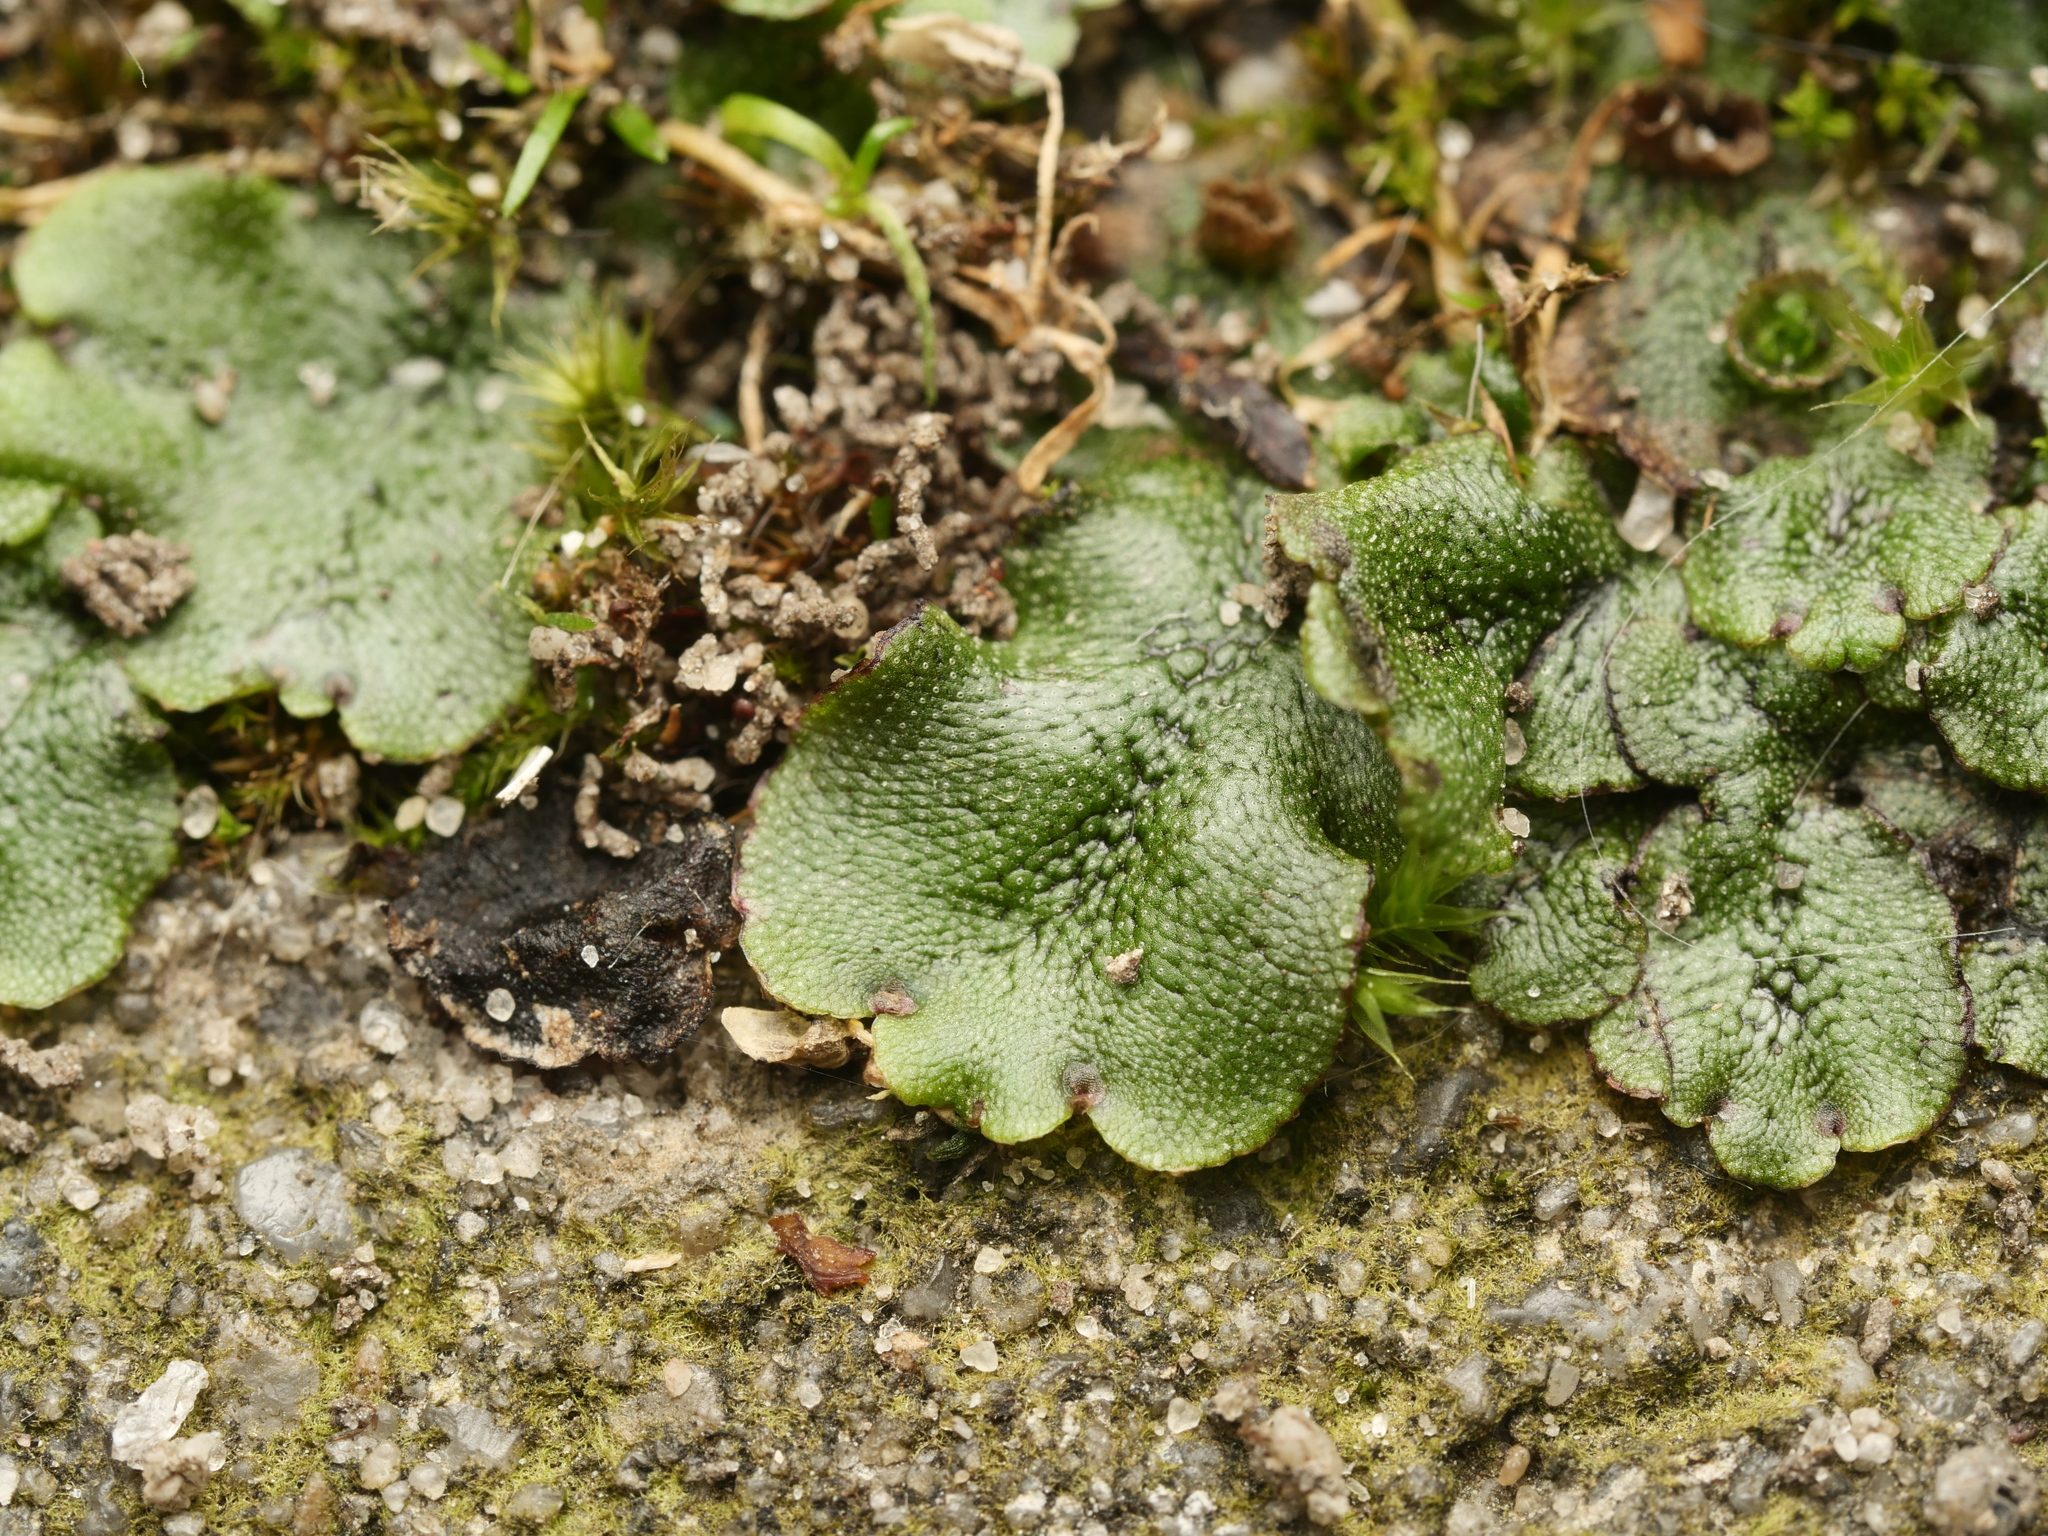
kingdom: Plantae
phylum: Marchantiophyta
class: Marchantiopsida
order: Marchantiales
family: Marchantiaceae
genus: Marchantia
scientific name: Marchantia polymorpha
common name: Common liverwort
